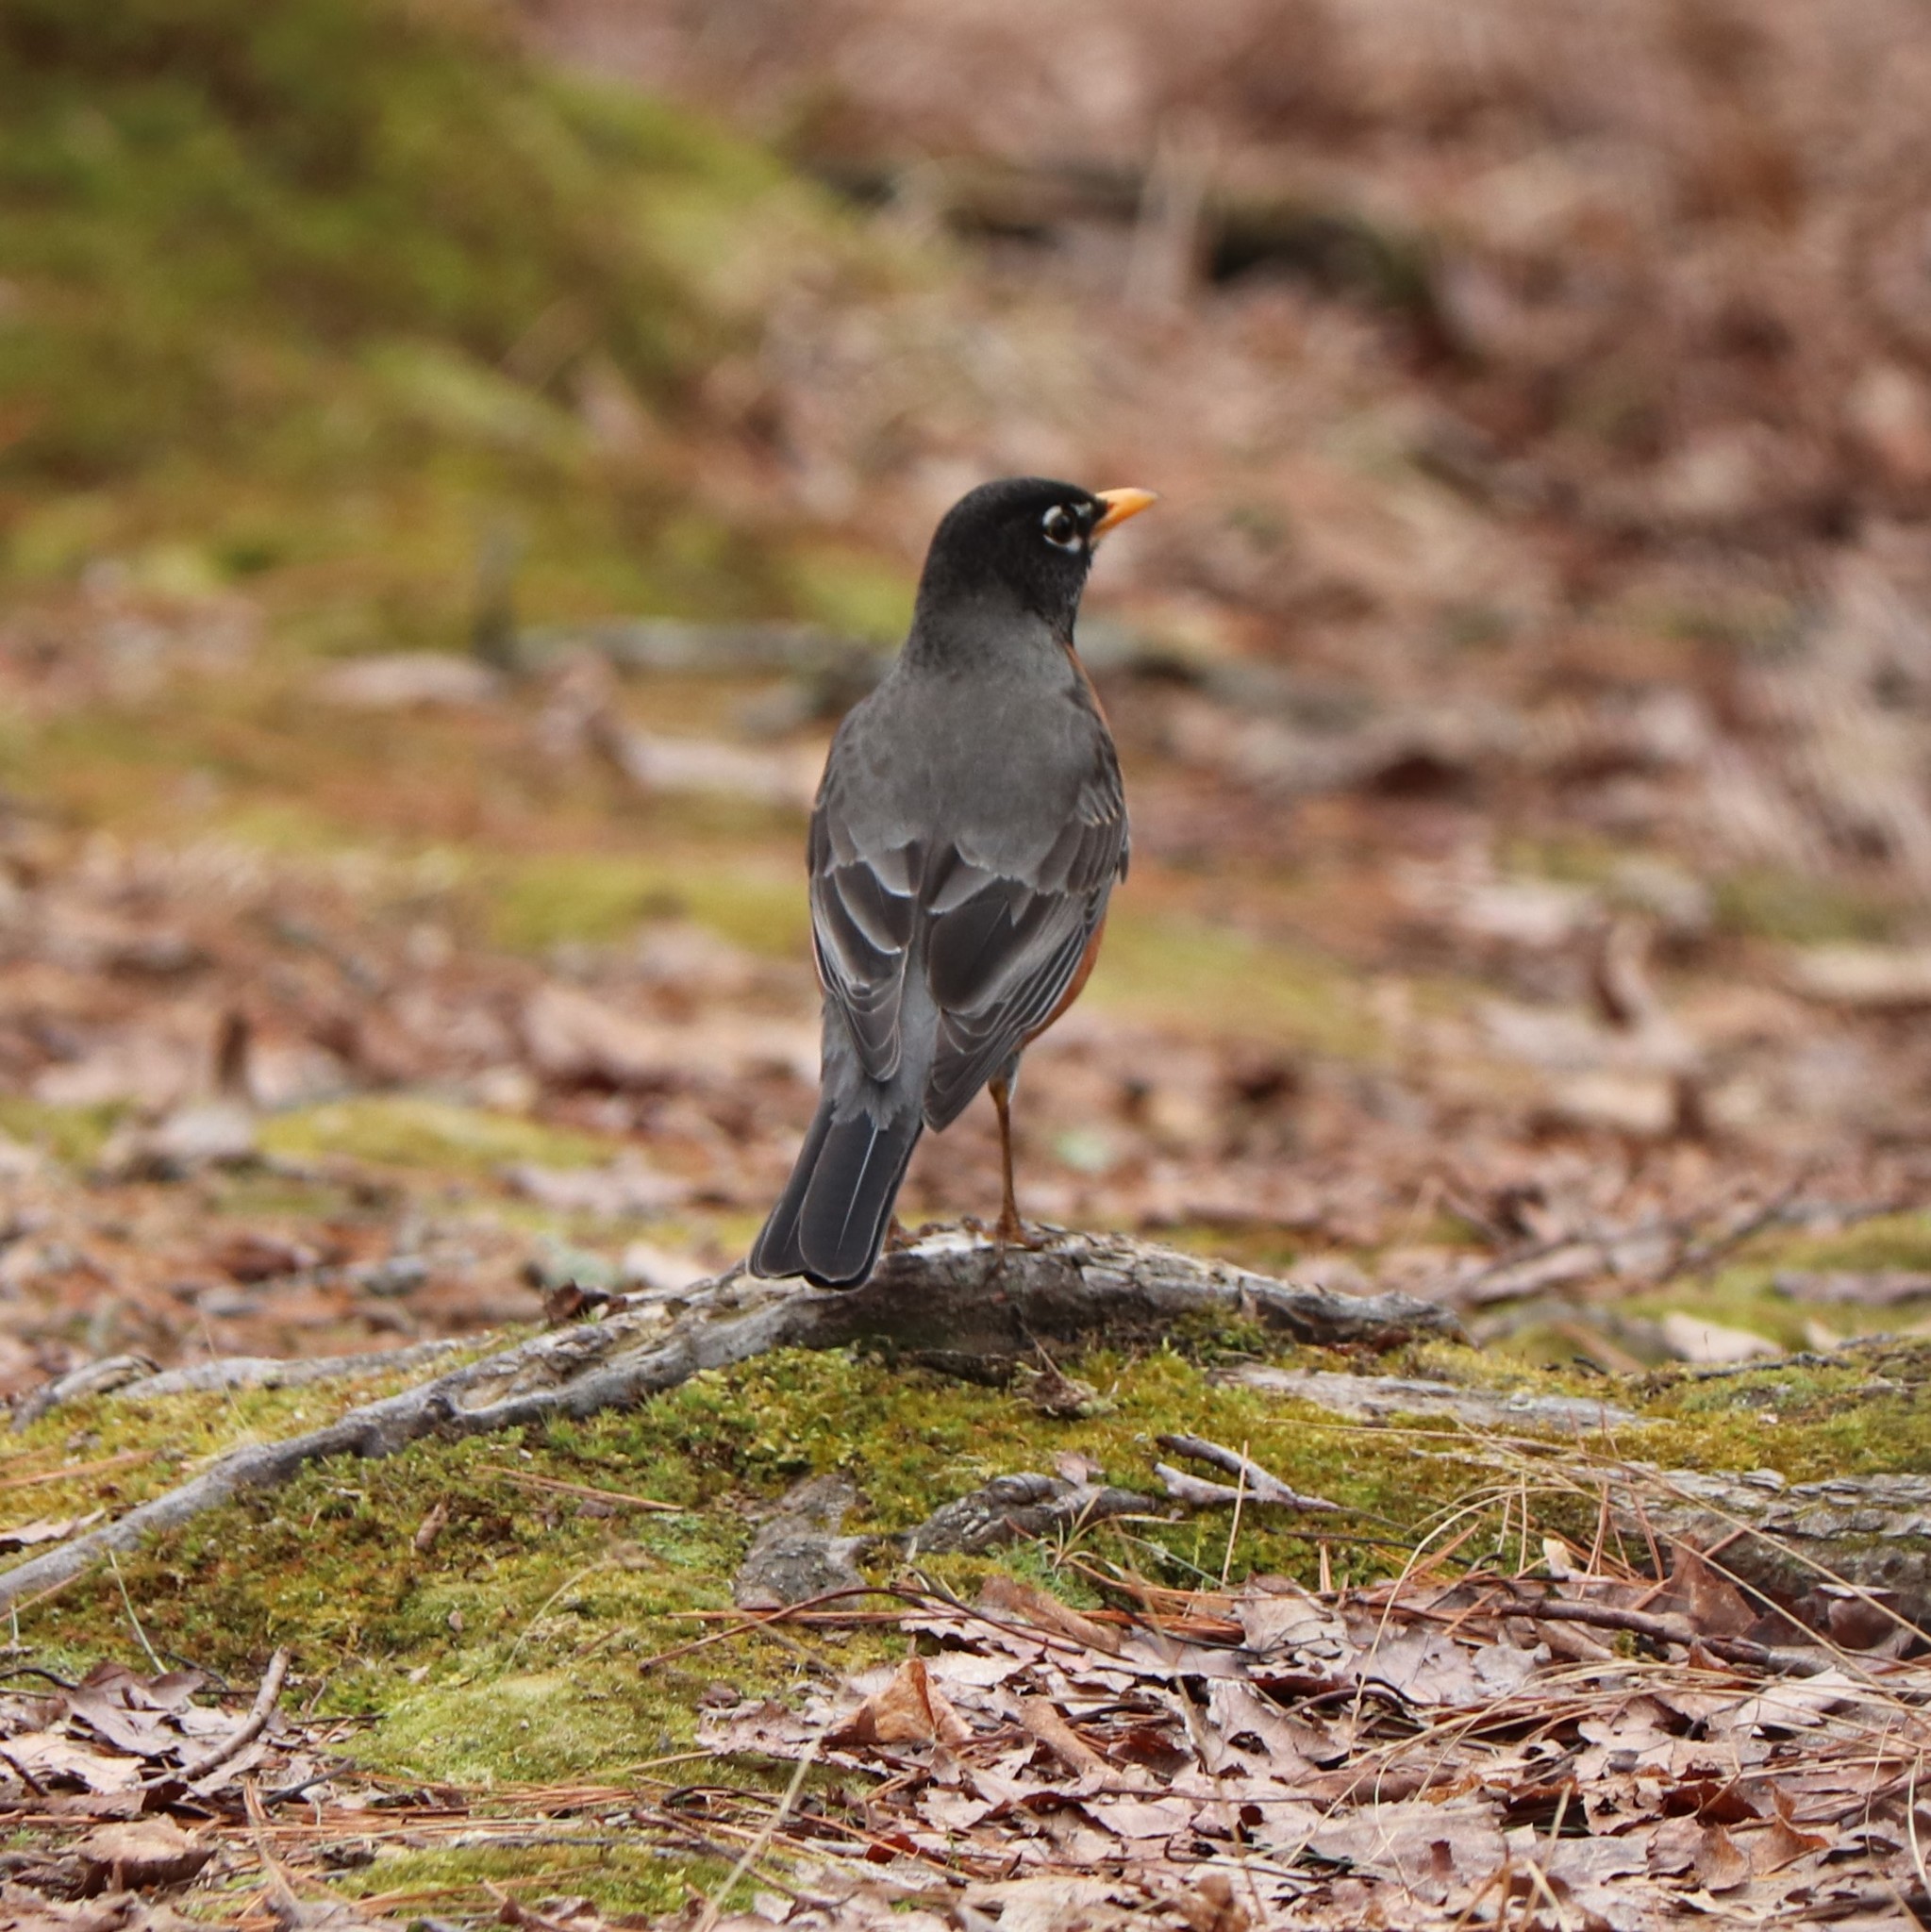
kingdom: Animalia
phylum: Chordata
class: Aves
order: Passeriformes
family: Turdidae
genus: Turdus
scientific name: Turdus migratorius
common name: American robin
